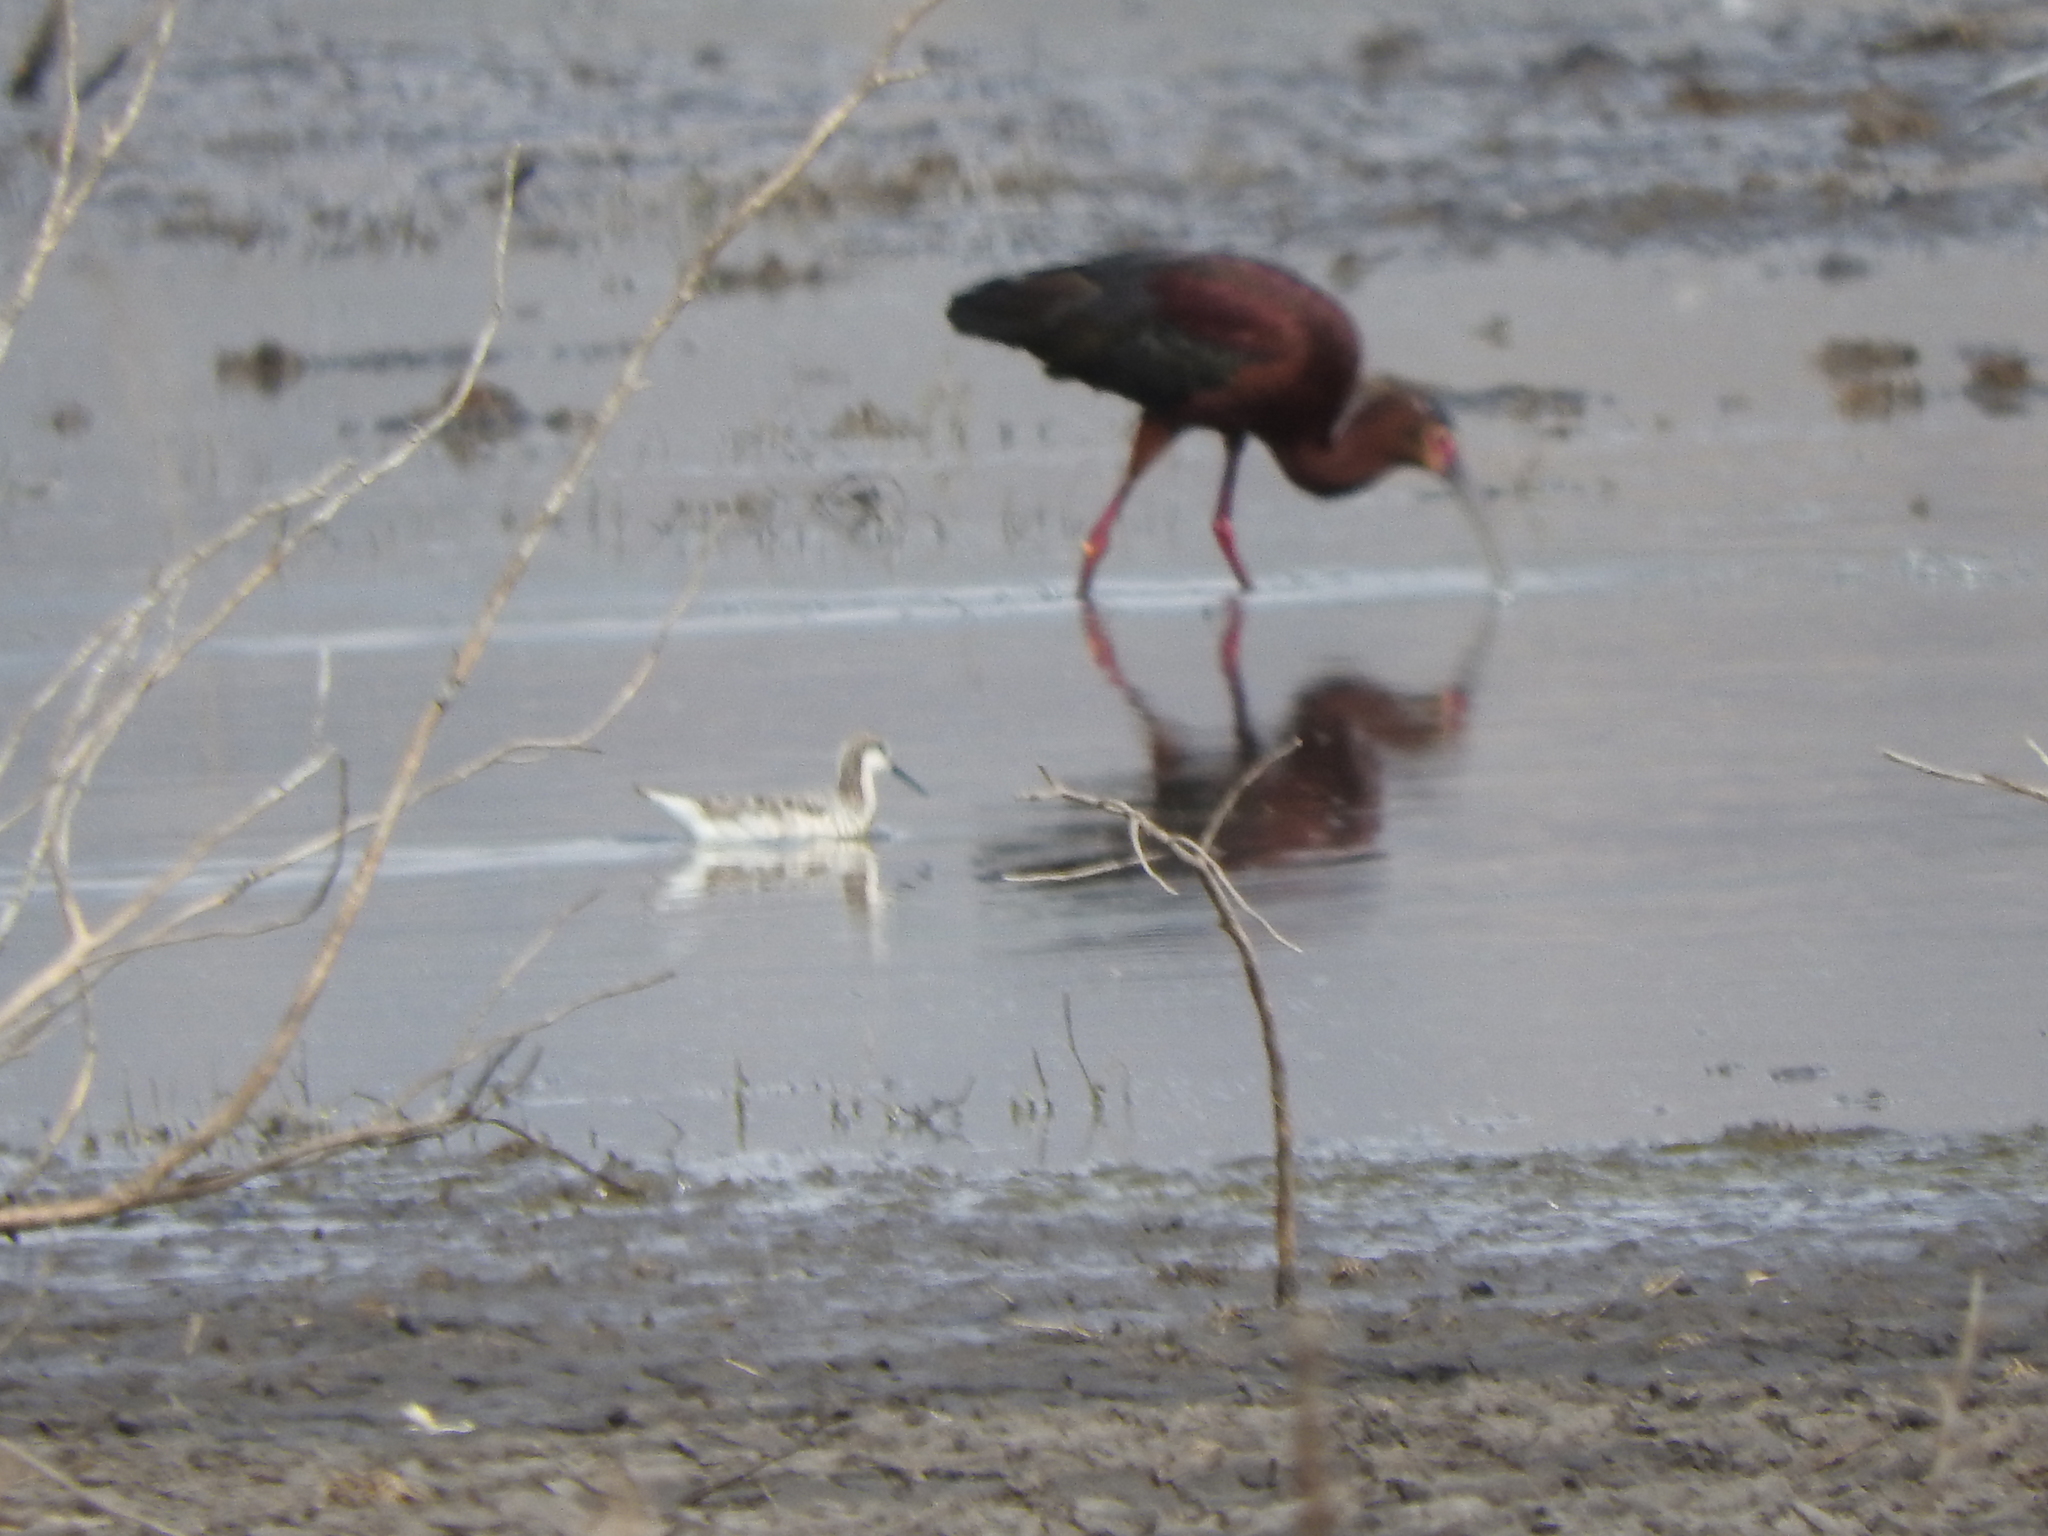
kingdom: Animalia
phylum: Chordata
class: Aves
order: Pelecaniformes
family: Threskiornithidae
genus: Plegadis
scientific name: Plegadis chihi
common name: White-faced ibis
